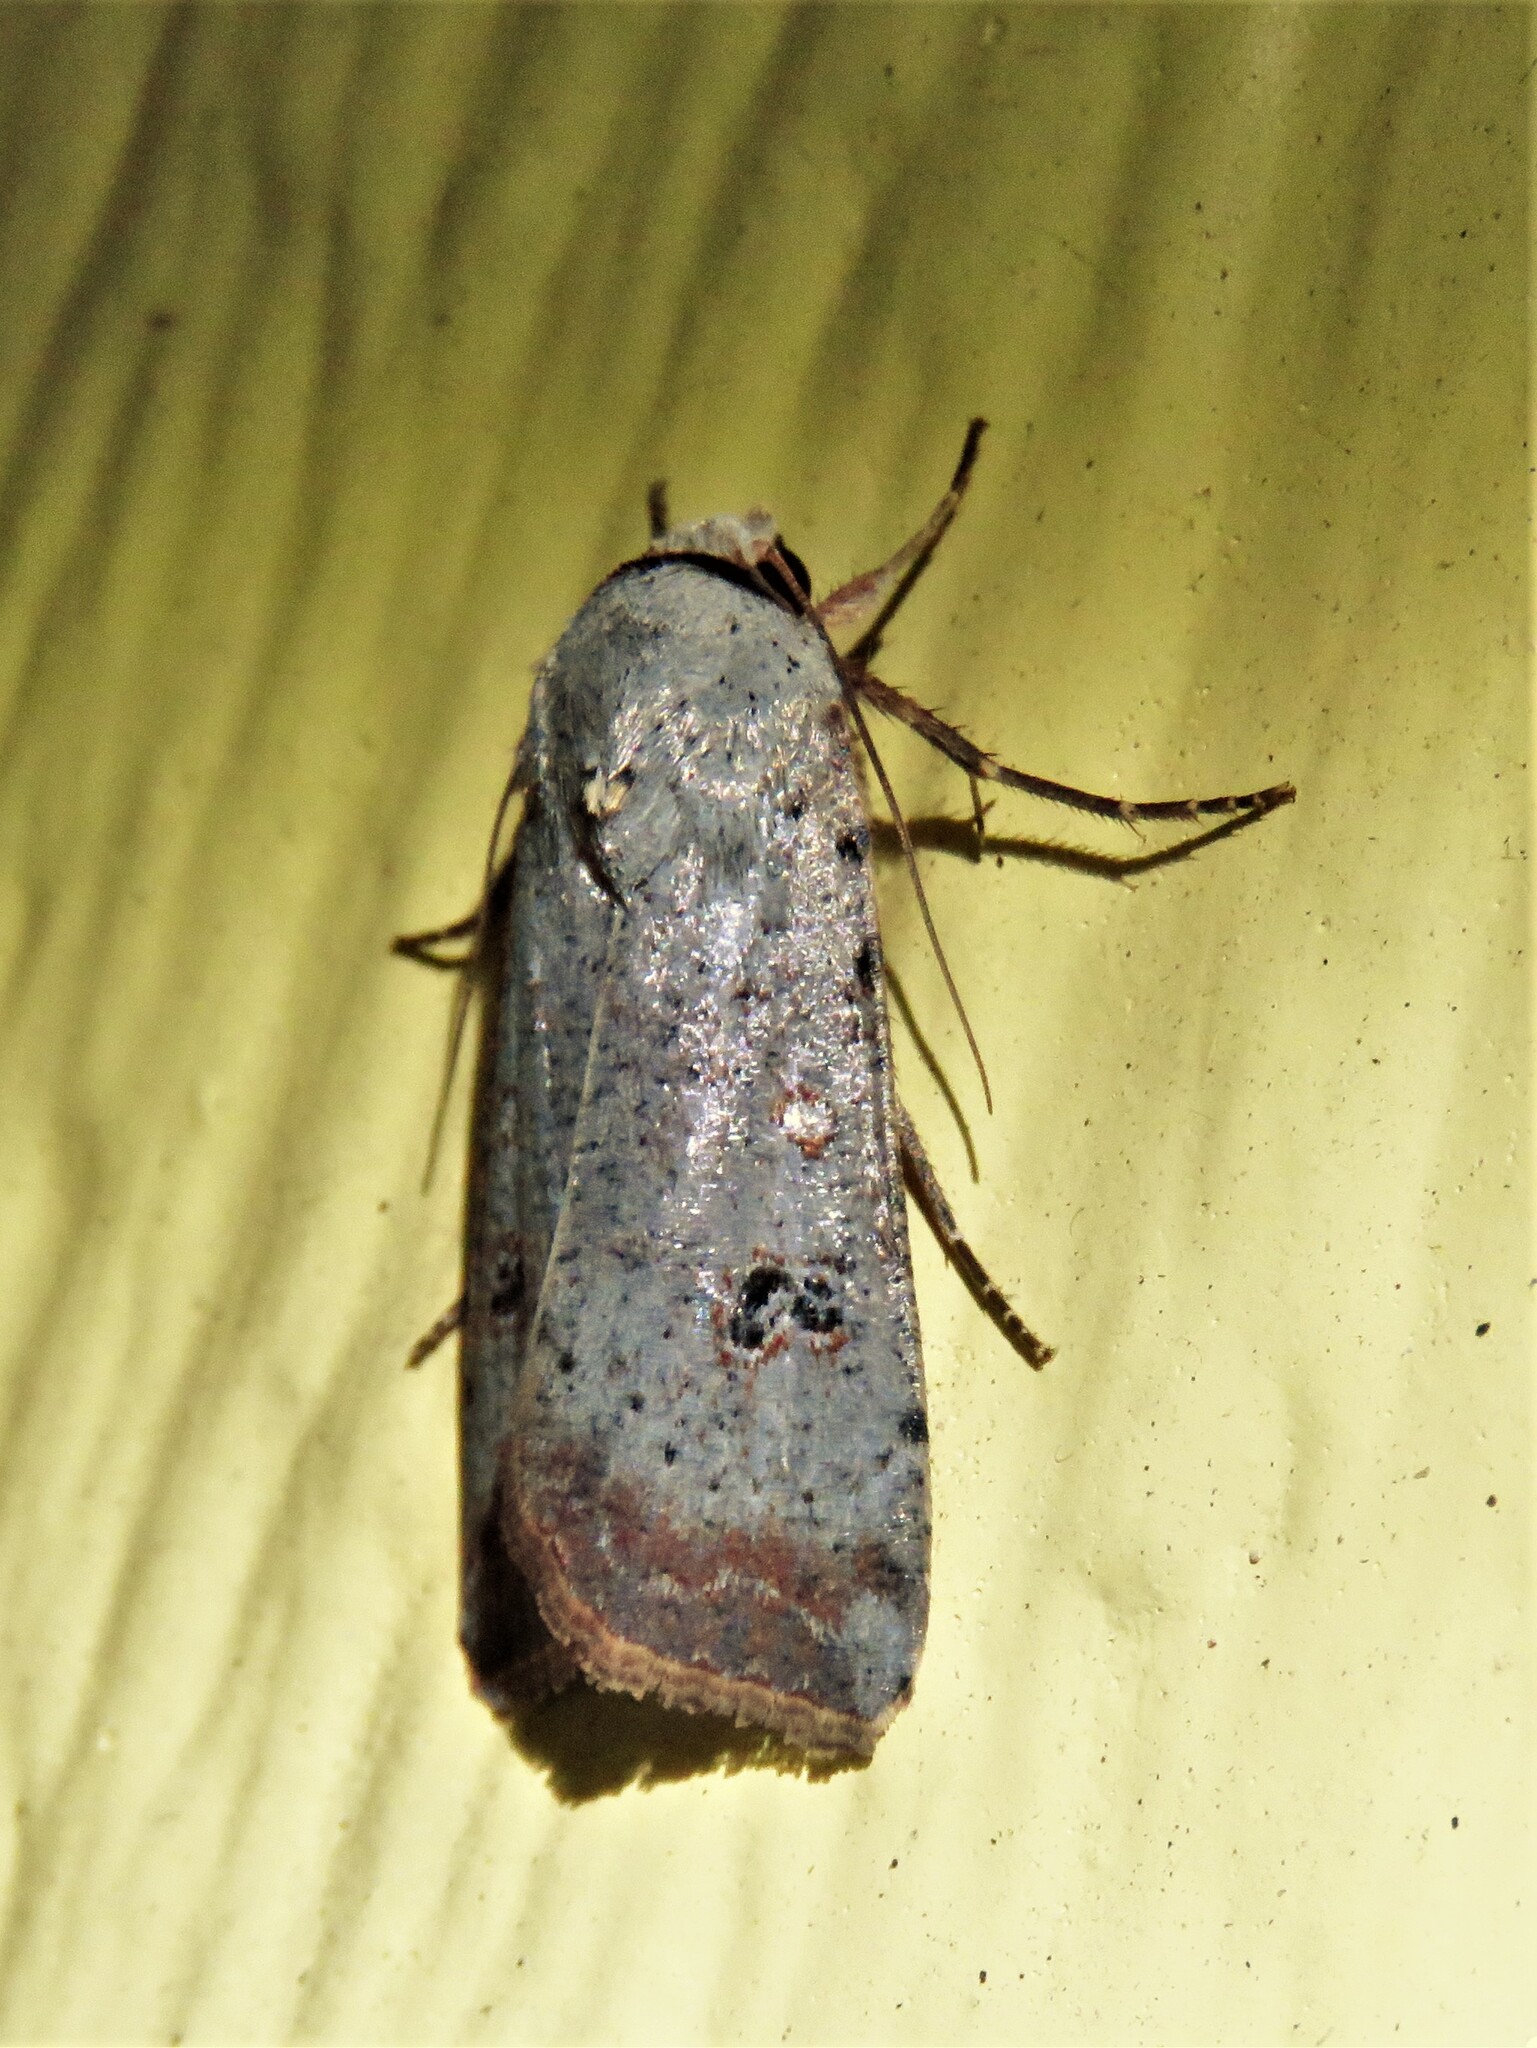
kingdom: Animalia
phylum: Arthropoda
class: Insecta
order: Lepidoptera
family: Noctuidae
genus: Anicla
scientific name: Anicla infecta
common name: Green cutworm
